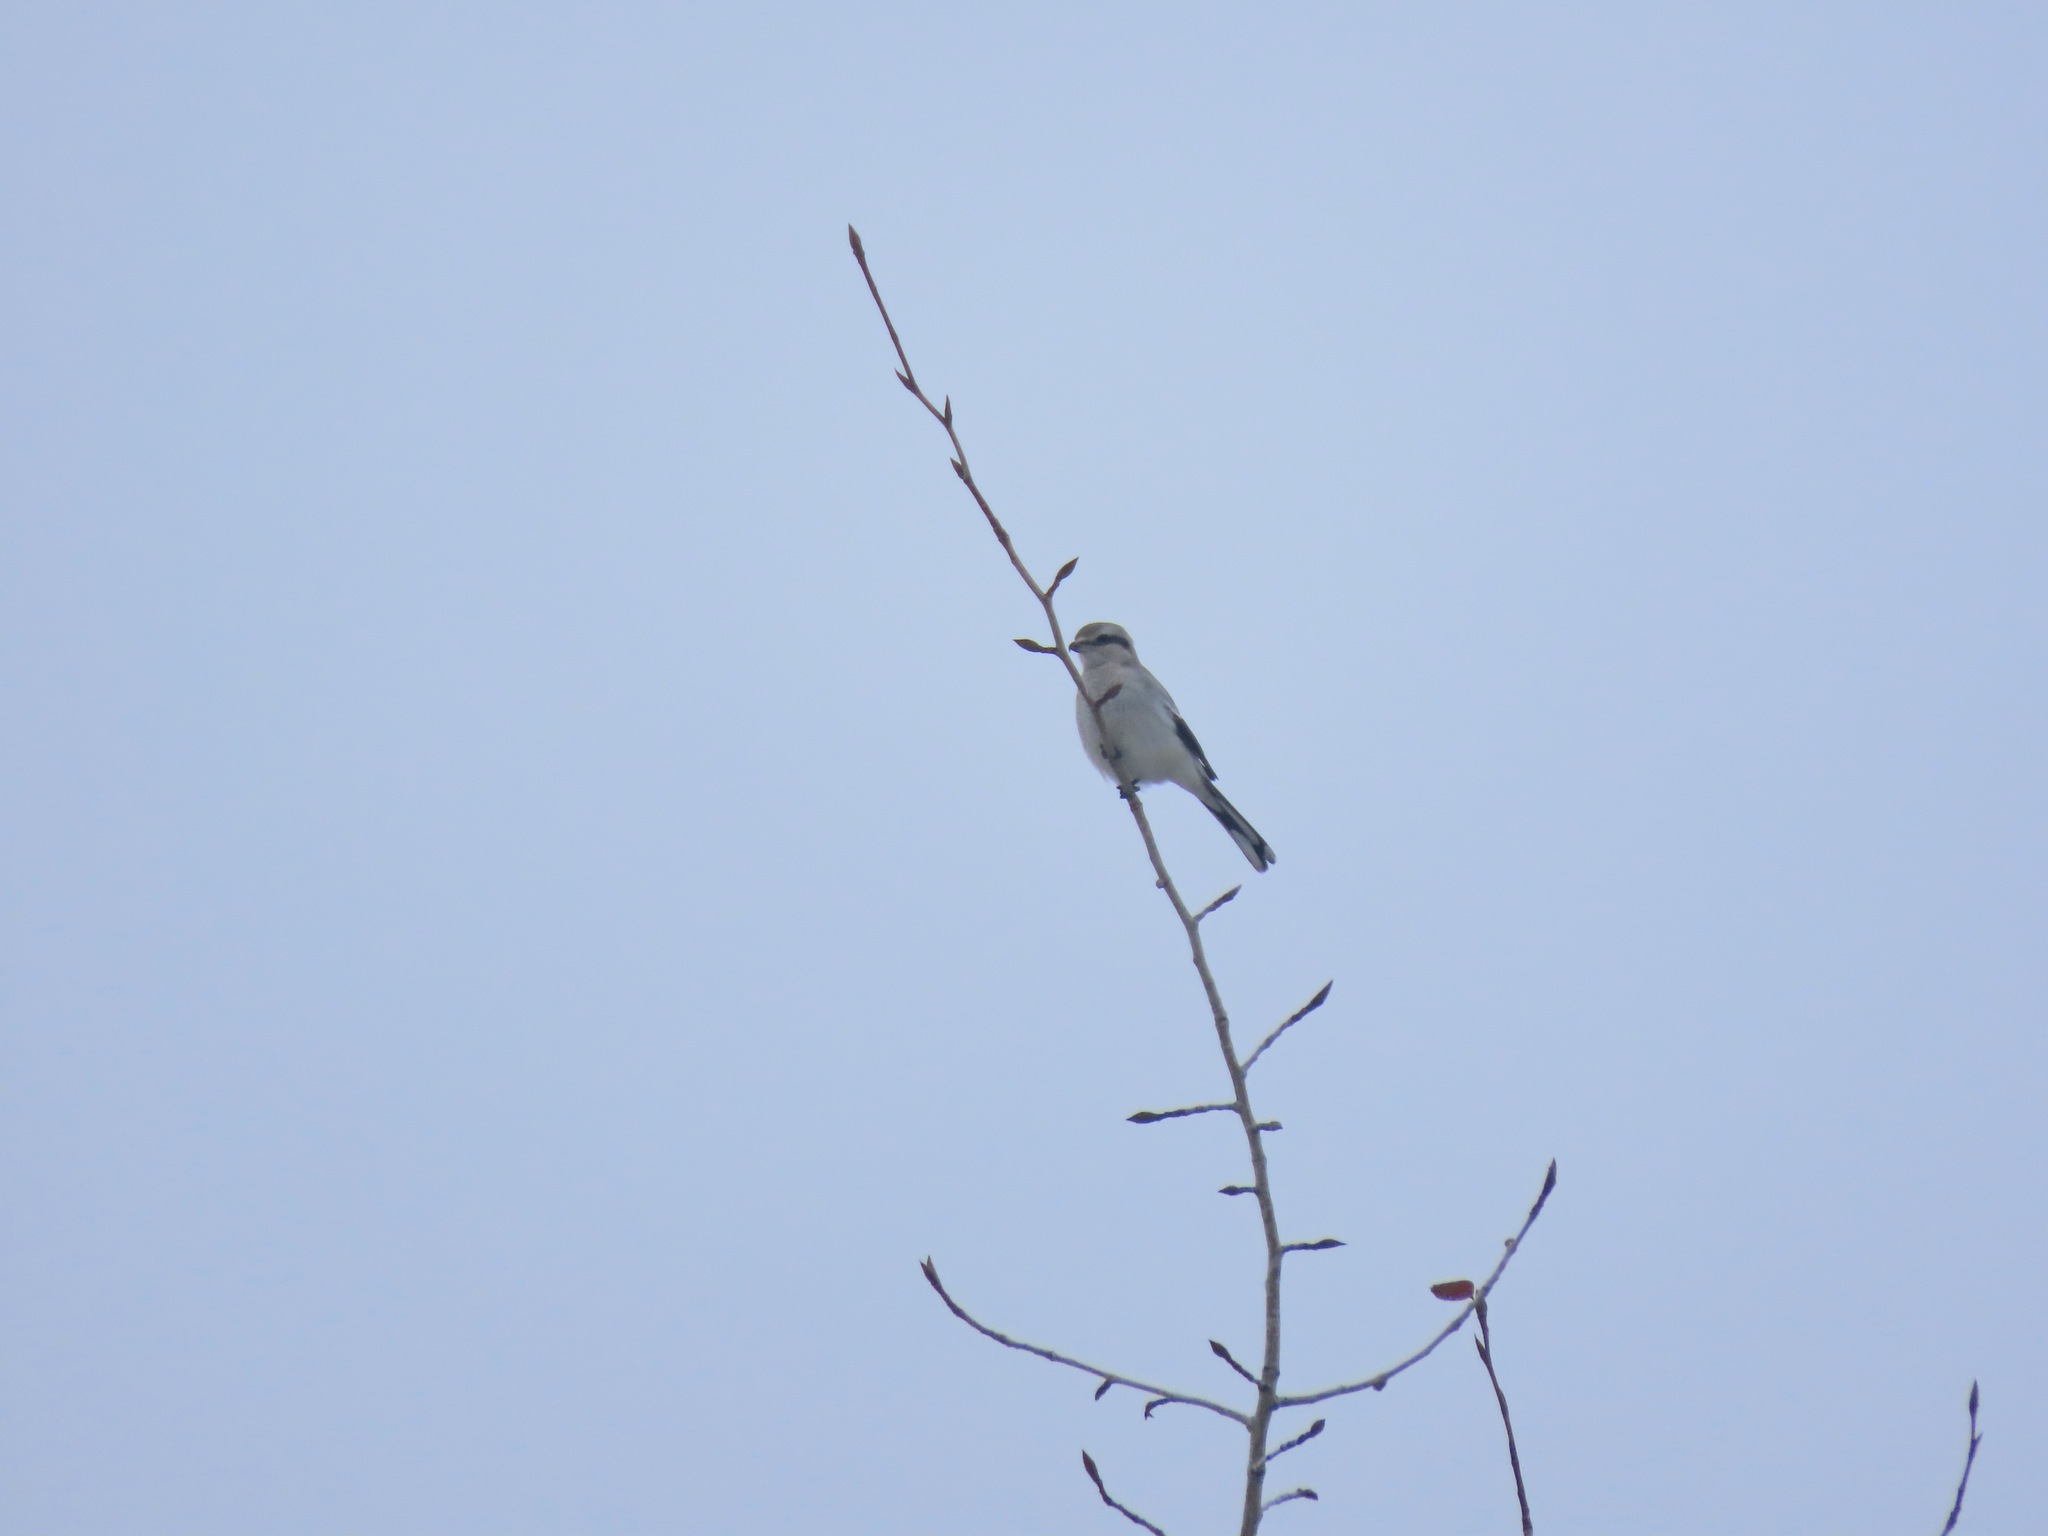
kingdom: Animalia
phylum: Chordata
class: Aves
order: Passeriformes
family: Laniidae
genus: Lanius
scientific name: Lanius borealis
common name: Northern shrike
